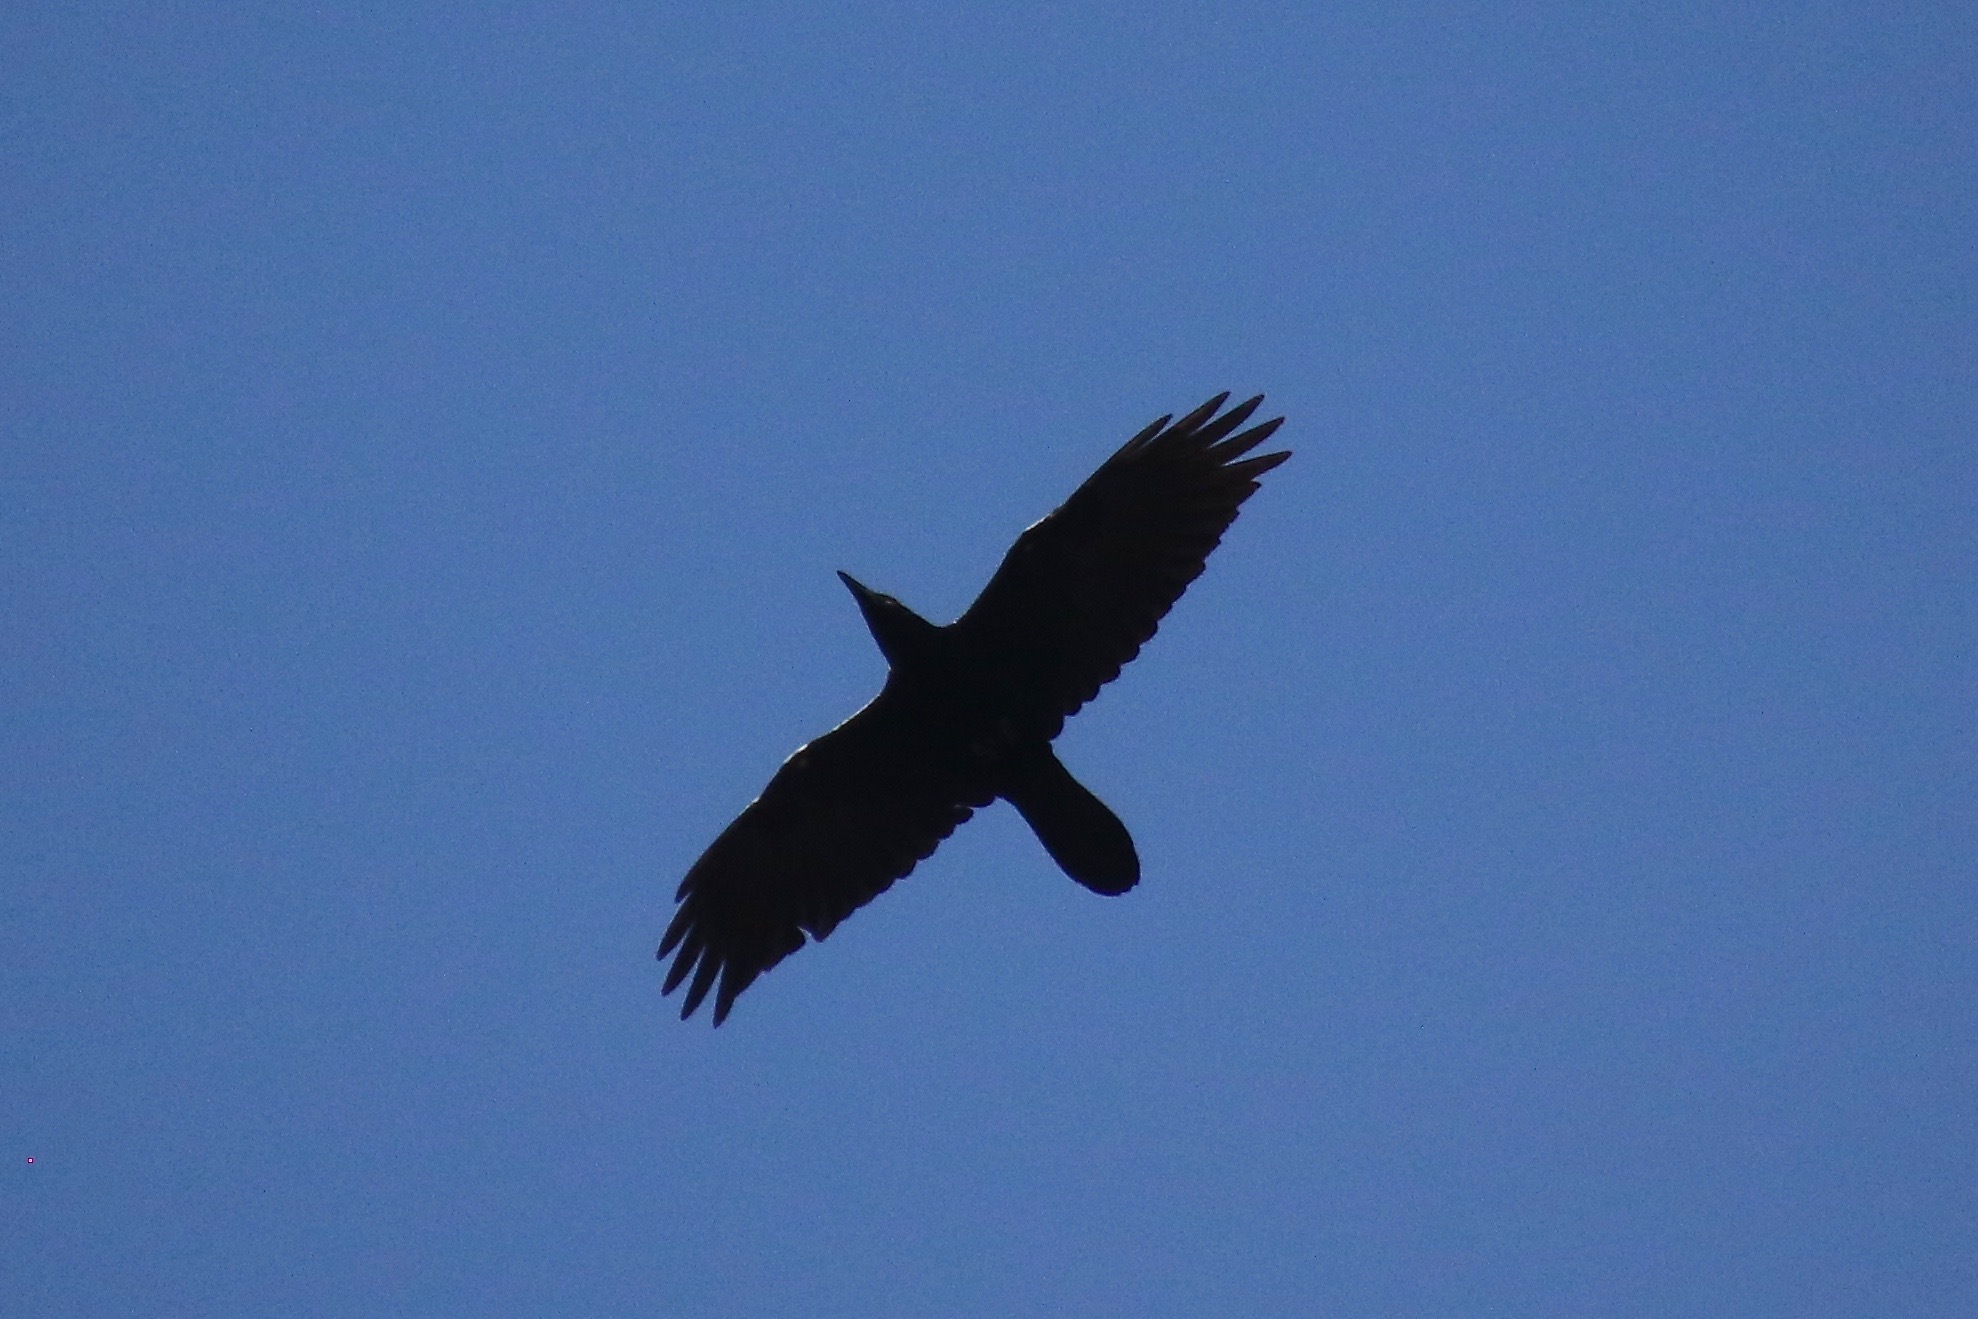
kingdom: Animalia
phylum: Chordata
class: Aves
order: Passeriformes
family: Corvidae
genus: Corvus
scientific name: Corvus corax
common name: Common raven
